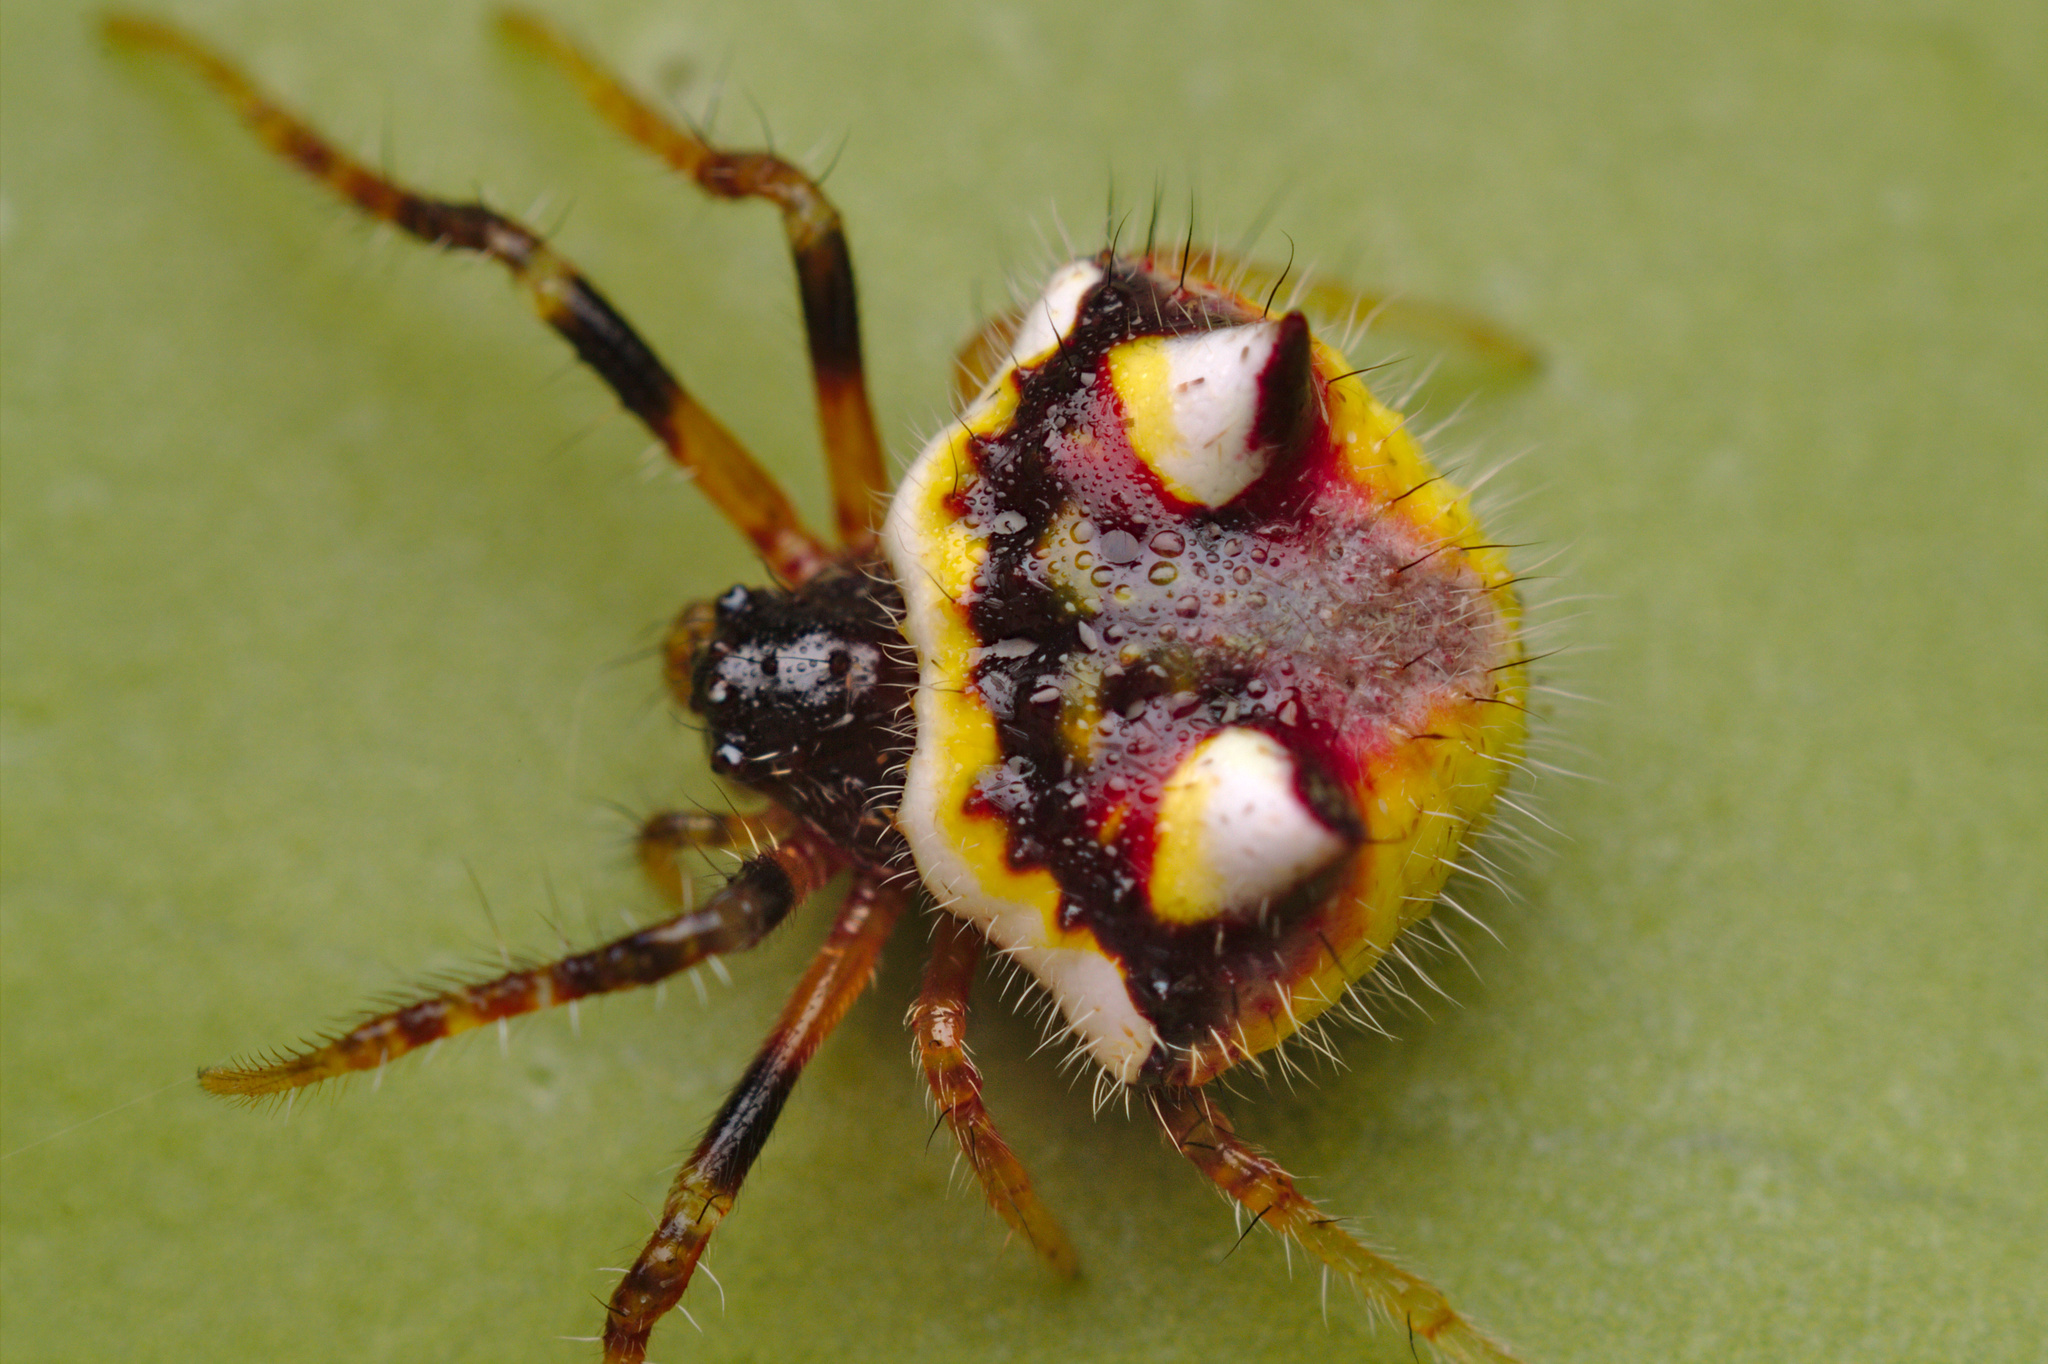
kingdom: Animalia
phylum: Arthropoda
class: Arachnida
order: Araneae
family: Araneidae
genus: Poecilopachys
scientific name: Poecilopachys australasia
